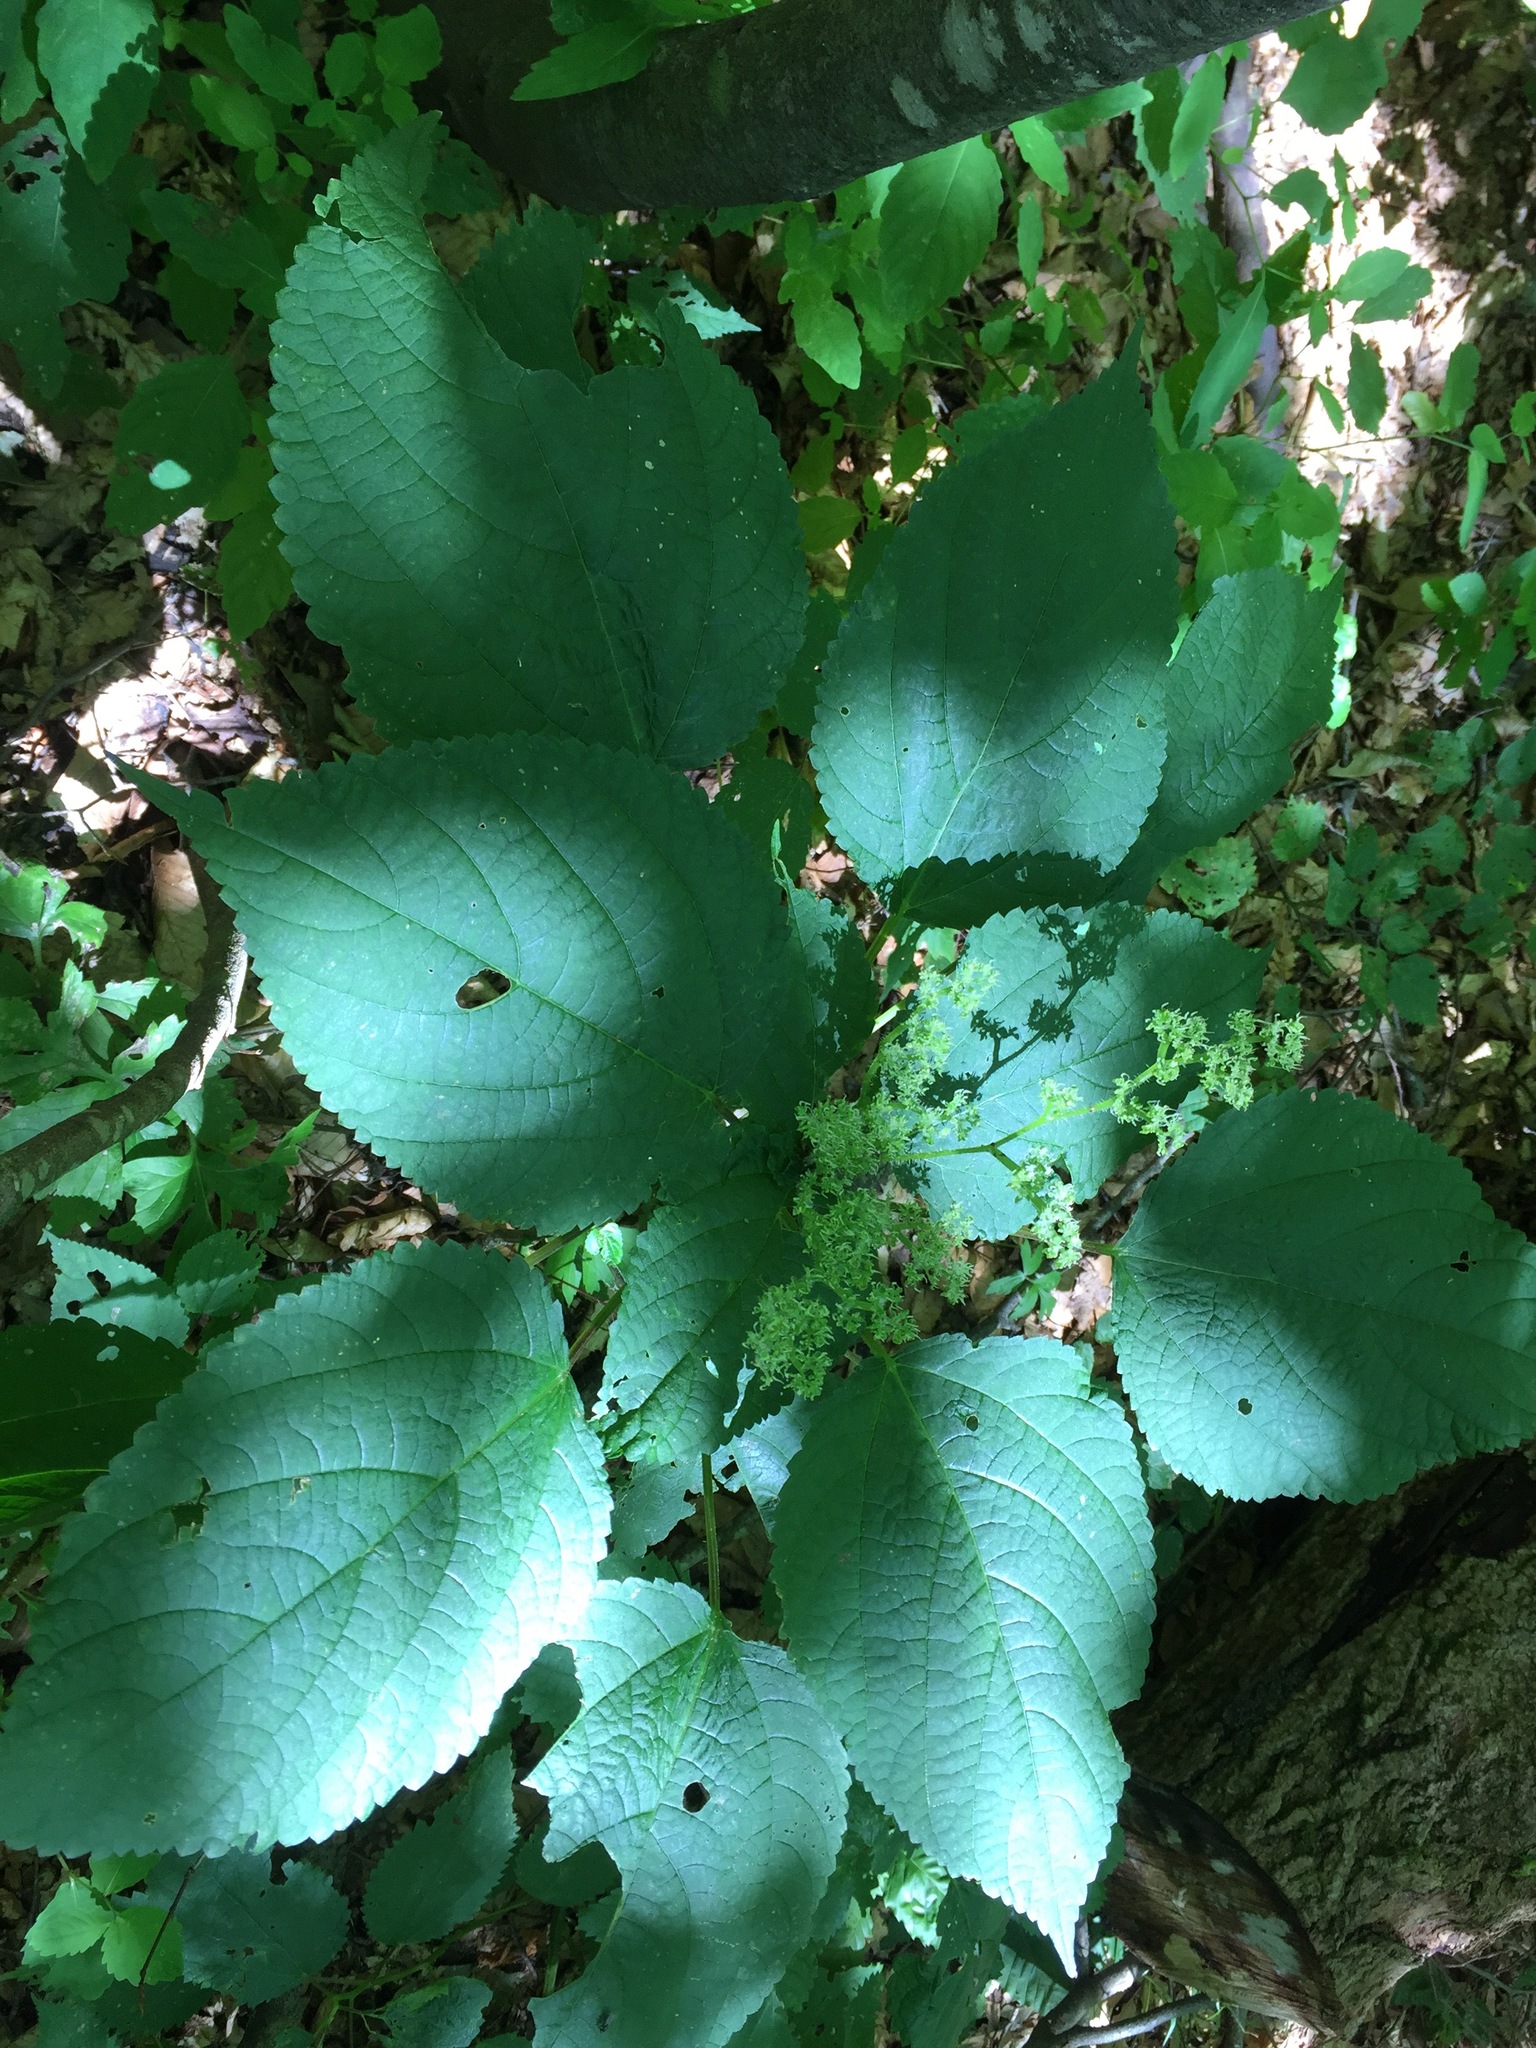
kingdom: Plantae
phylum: Tracheophyta
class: Magnoliopsida
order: Rosales
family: Urticaceae
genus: Laportea
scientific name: Laportea canadensis
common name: Canada nettle
